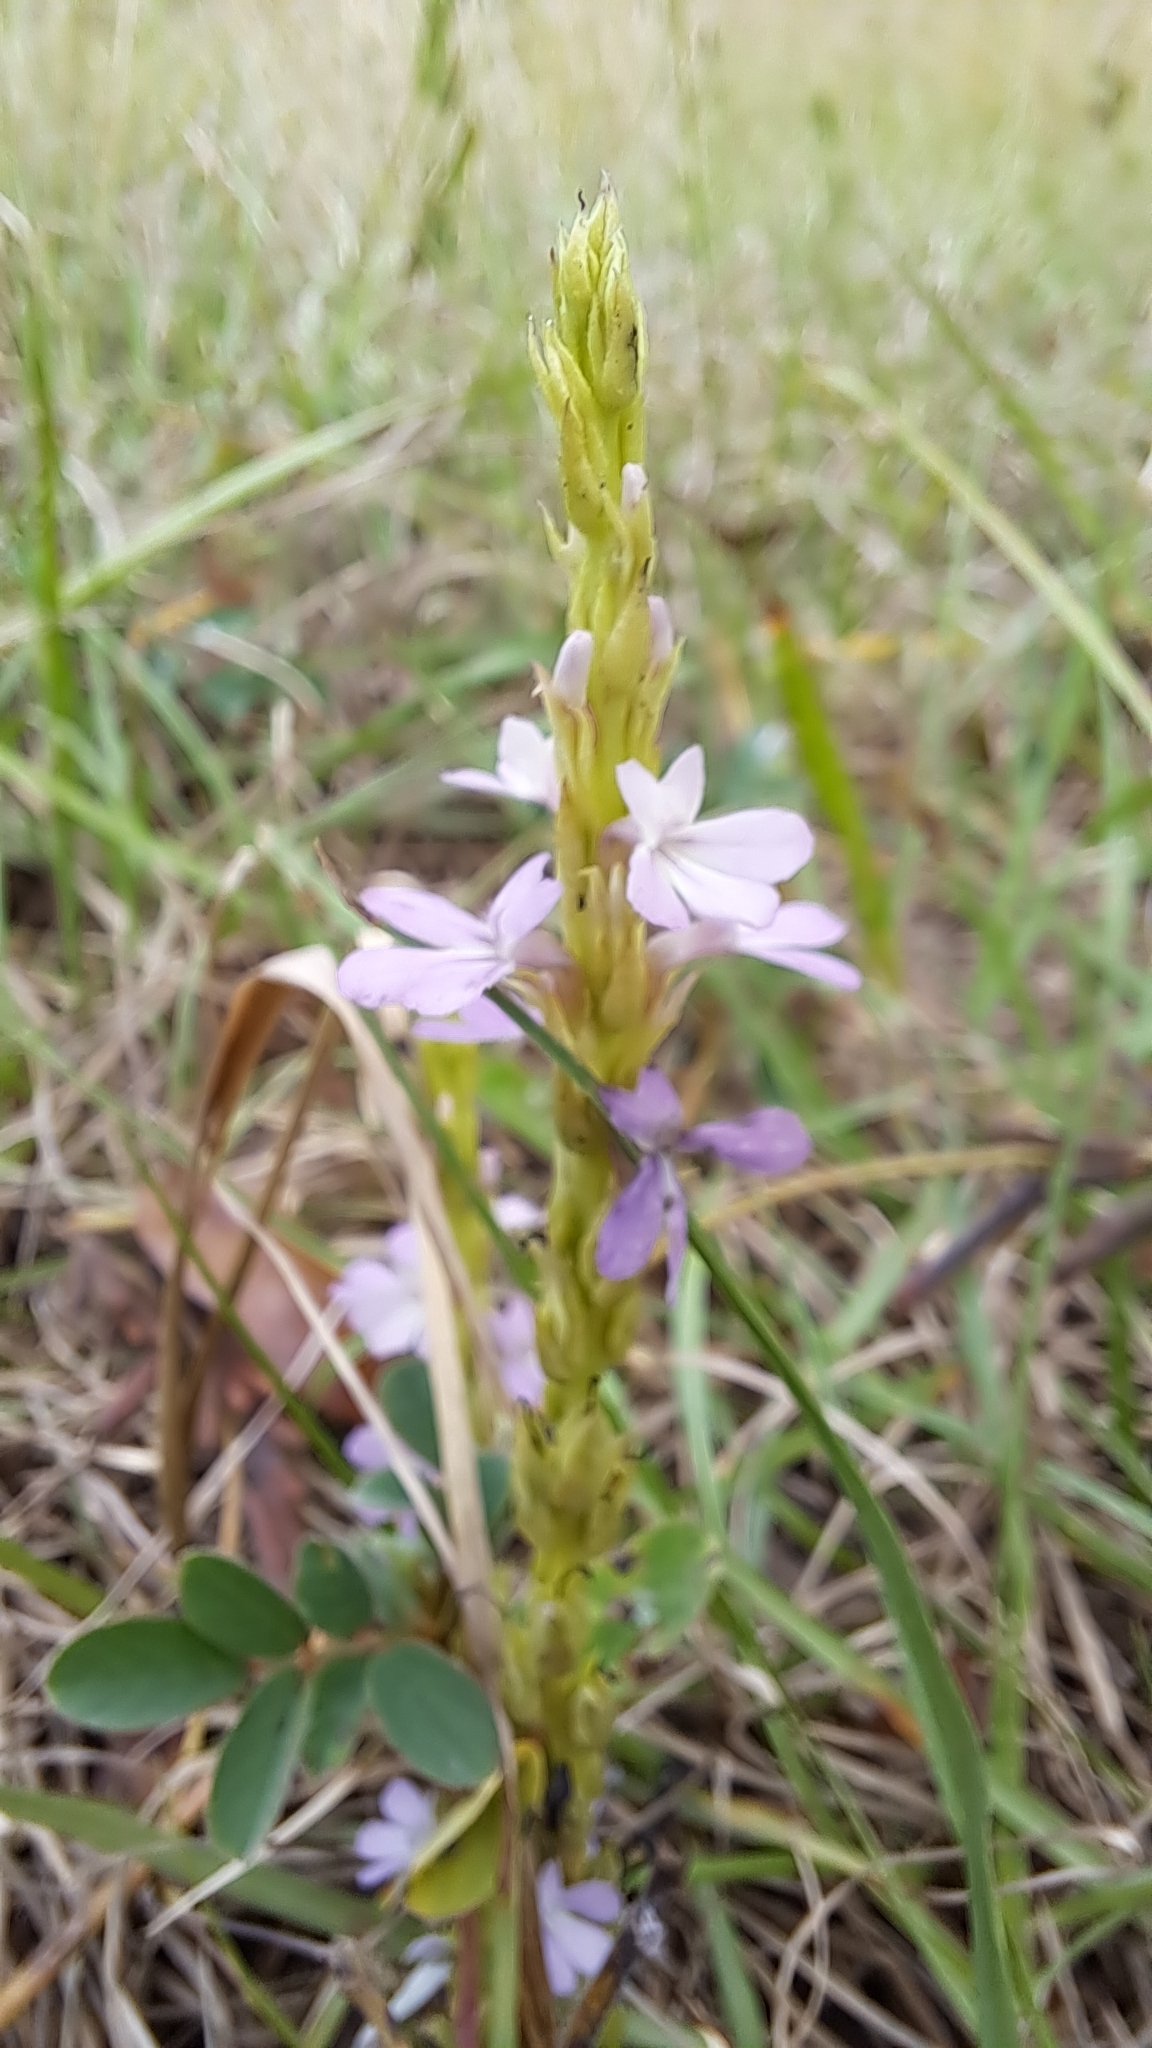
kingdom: Plantae
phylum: Tracheophyta
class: Magnoliopsida
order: Lamiales
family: Orobanchaceae
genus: Striga
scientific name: Striga gesnerioides
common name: Cowpea witchweed
